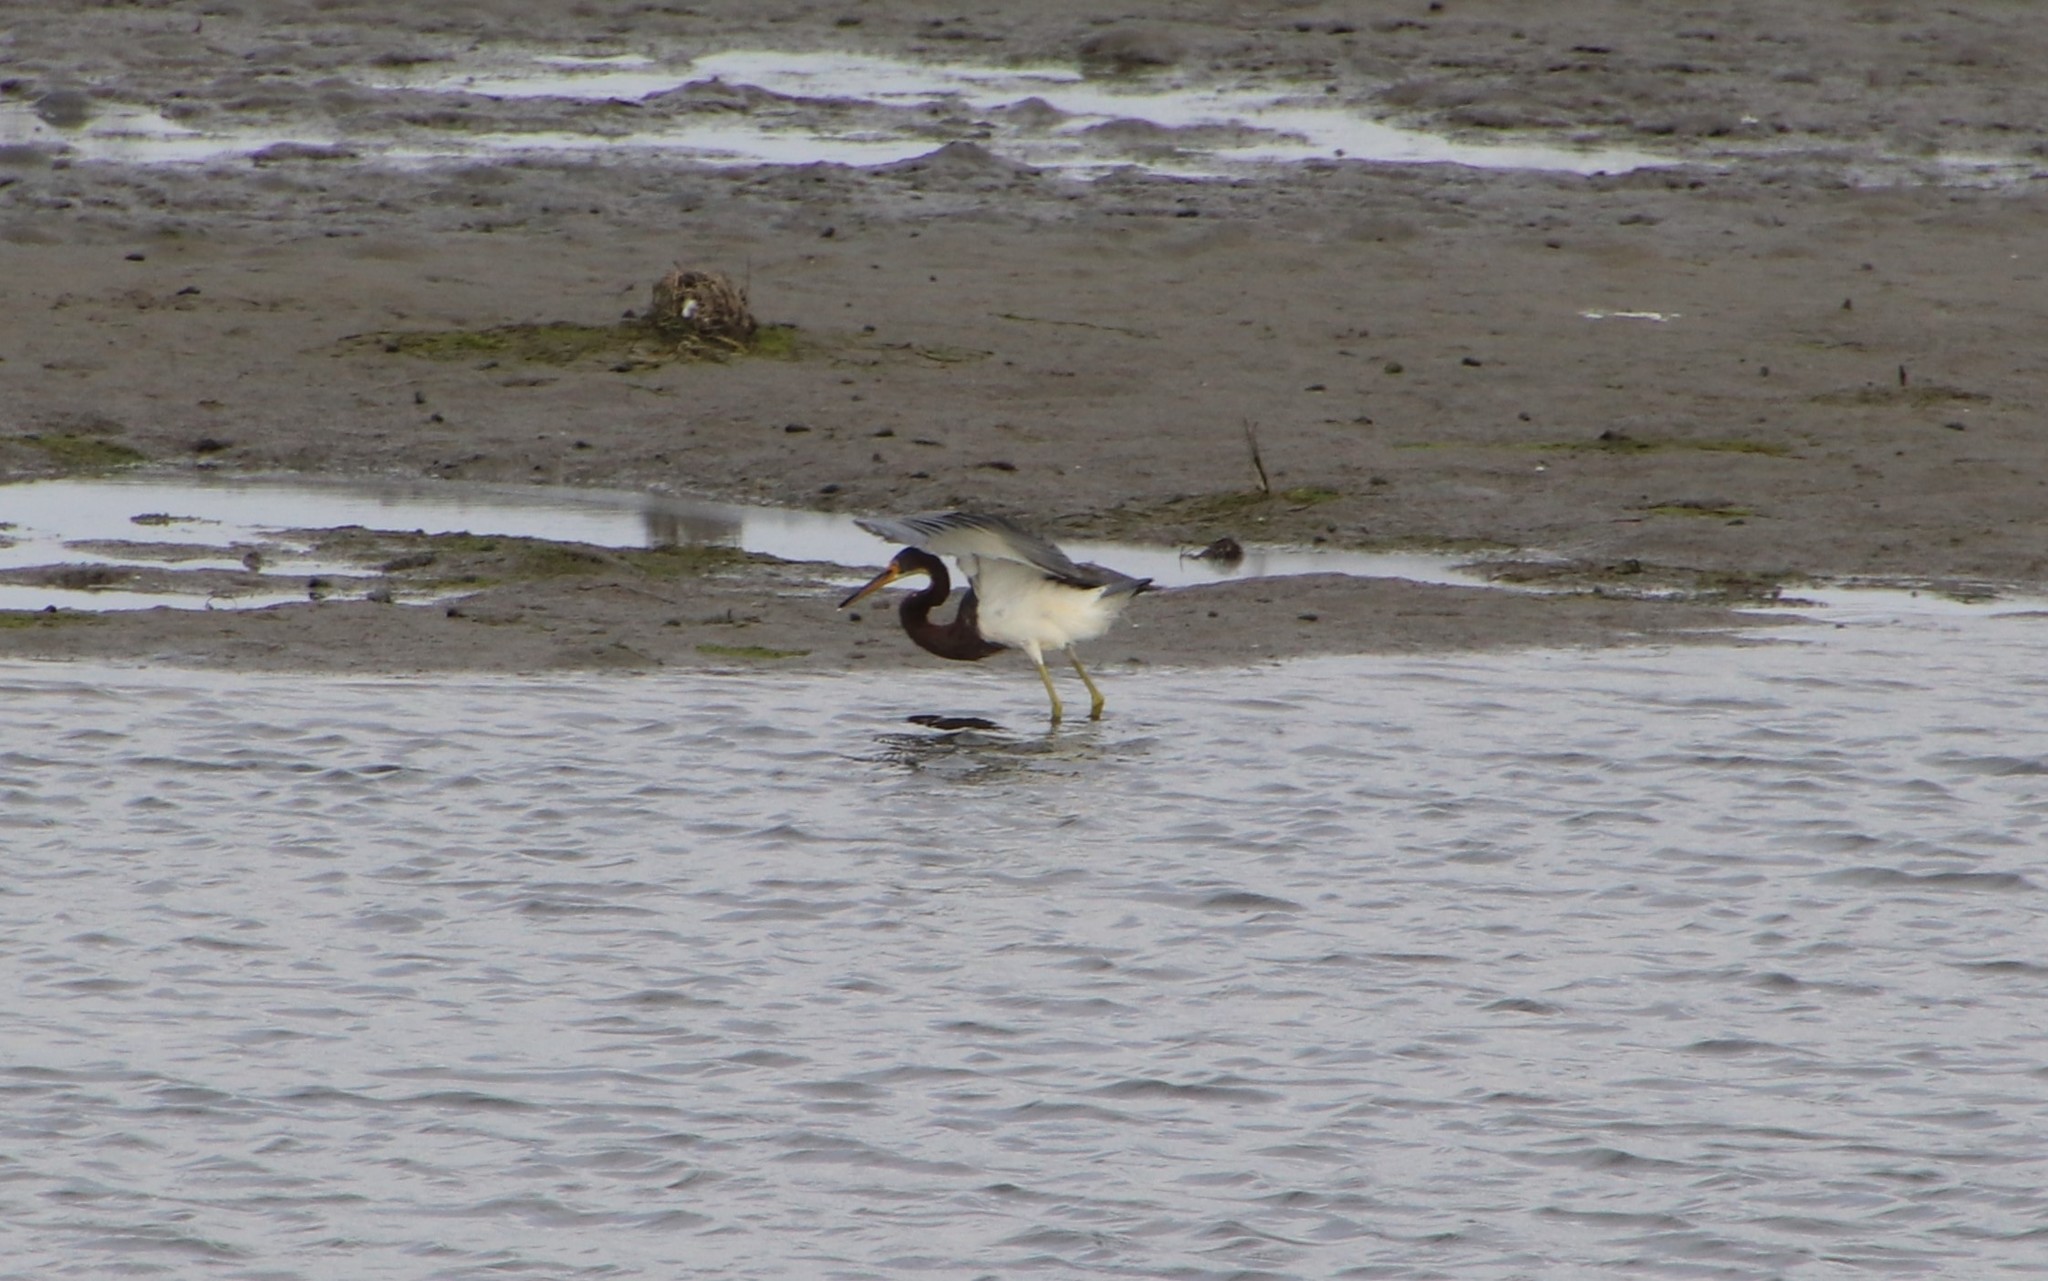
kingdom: Animalia
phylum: Chordata
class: Aves
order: Pelecaniformes
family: Ardeidae
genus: Egretta
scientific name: Egretta tricolor
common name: Tricolored heron
